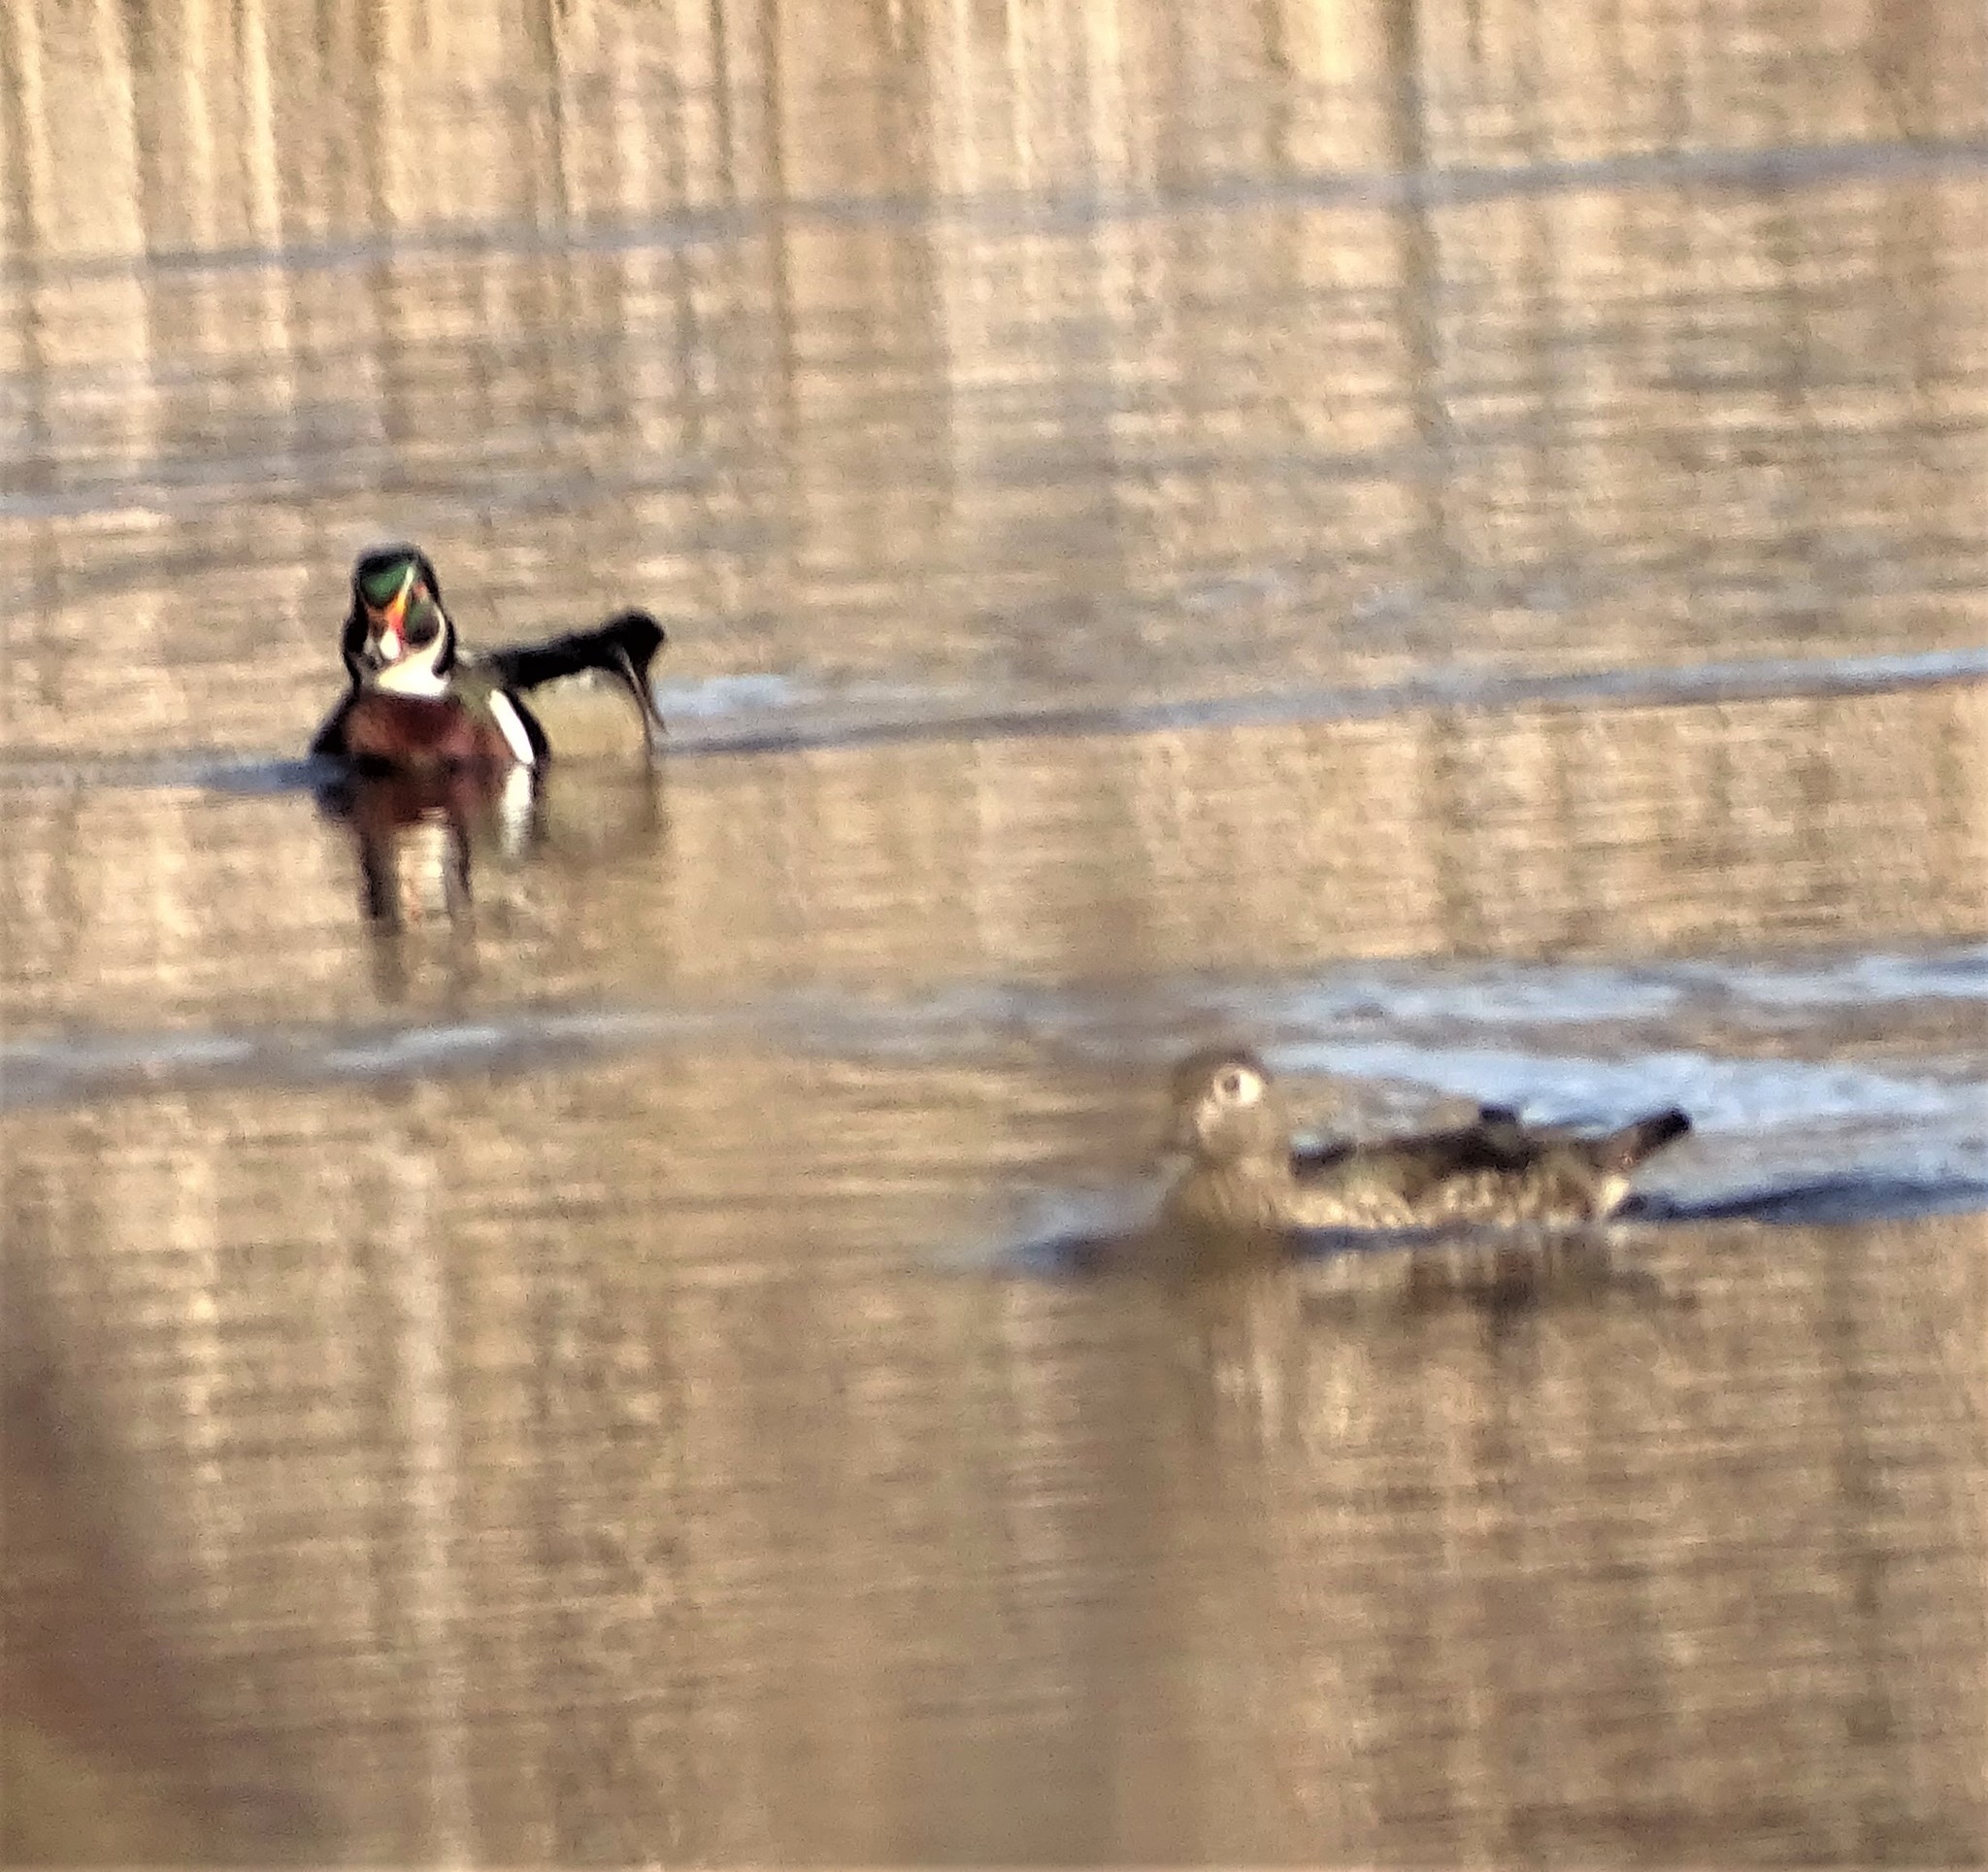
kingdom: Animalia
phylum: Chordata
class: Aves
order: Anseriformes
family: Anatidae
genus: Aix
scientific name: Aix sponsa
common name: Wood duck
